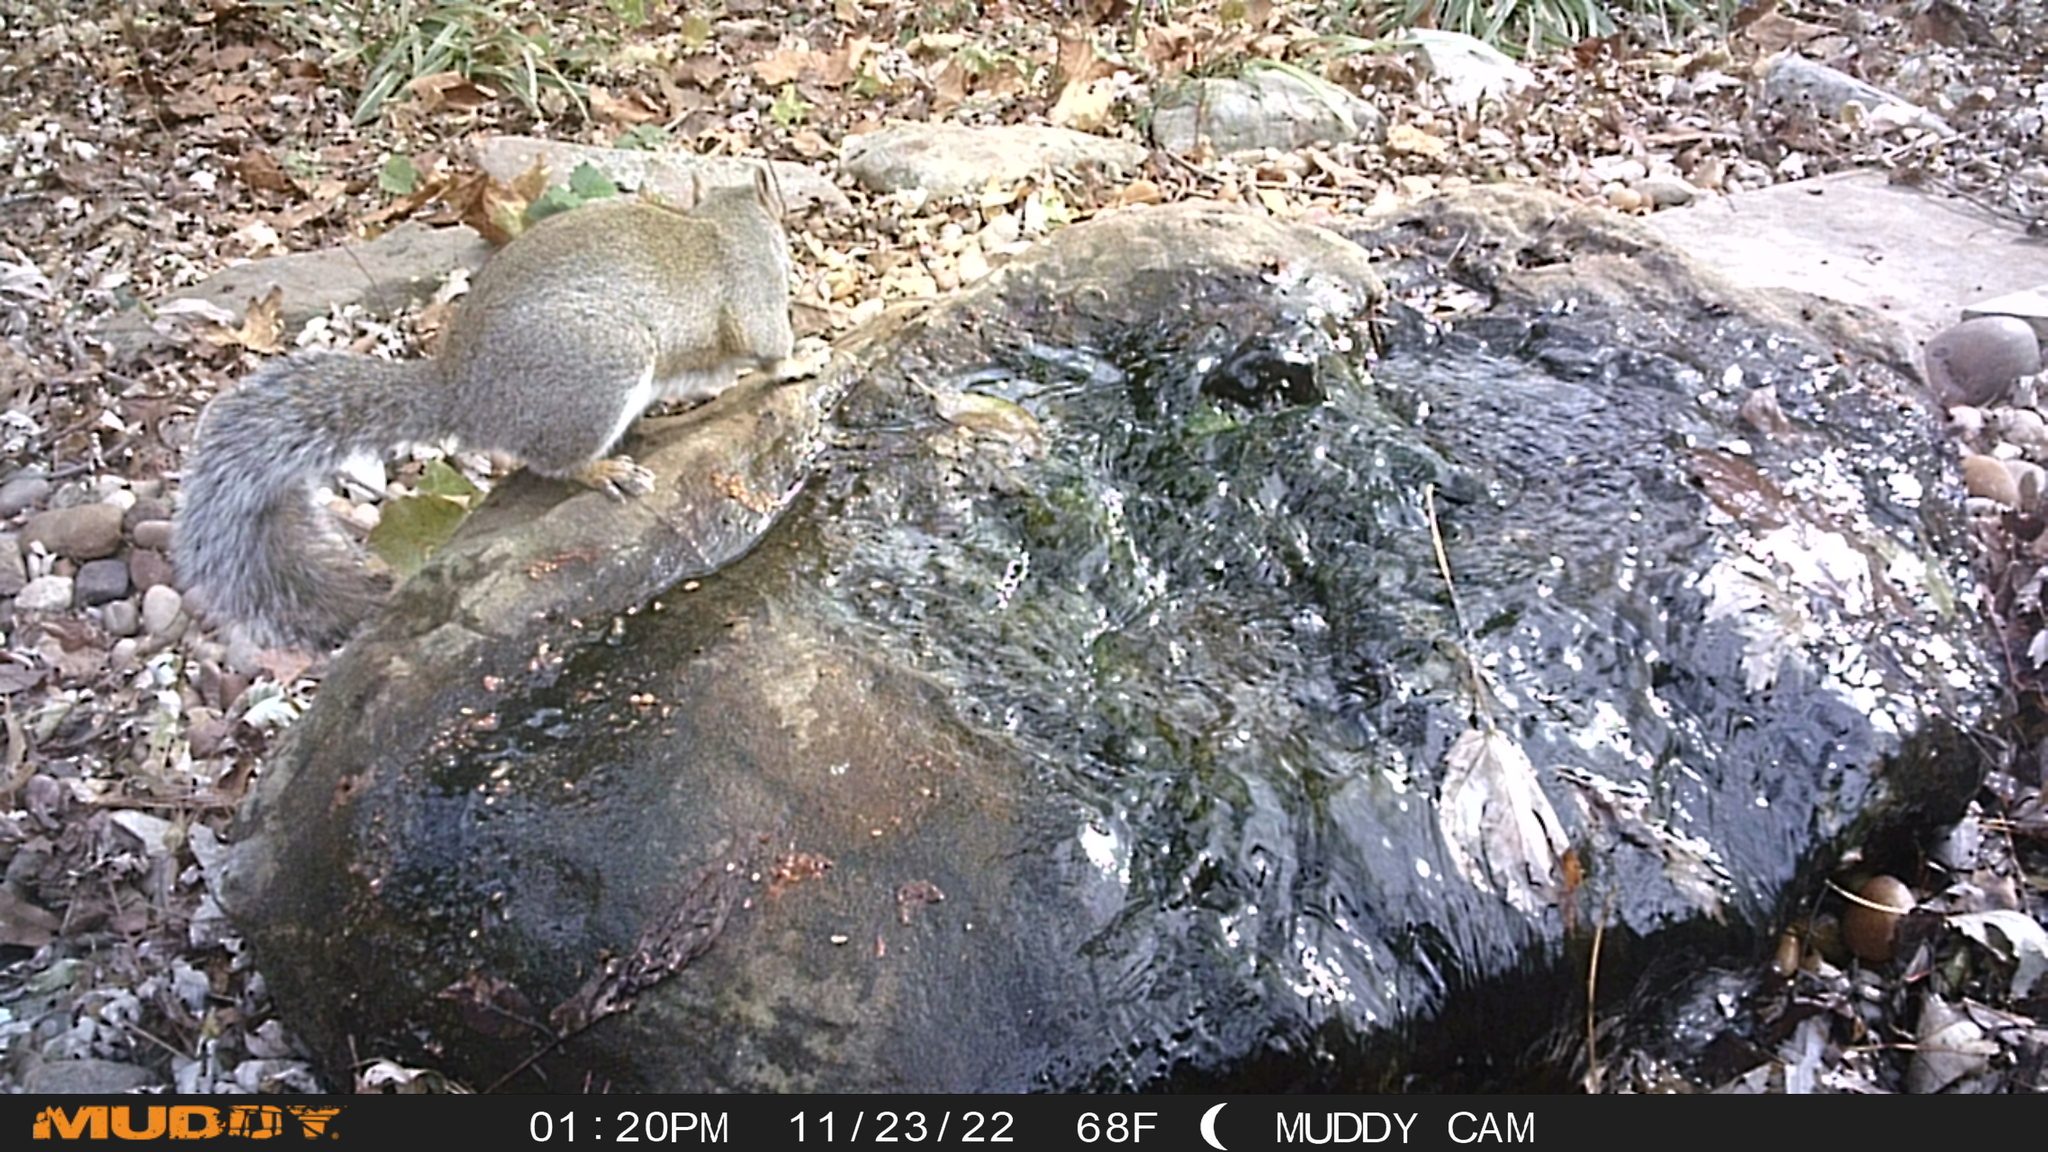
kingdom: Animalia
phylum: Chordata
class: Mammalia
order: Rodentia
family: Sciuridae
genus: Sciurus
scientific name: Sciurus carolinensis
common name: Eastern gray squirrel
